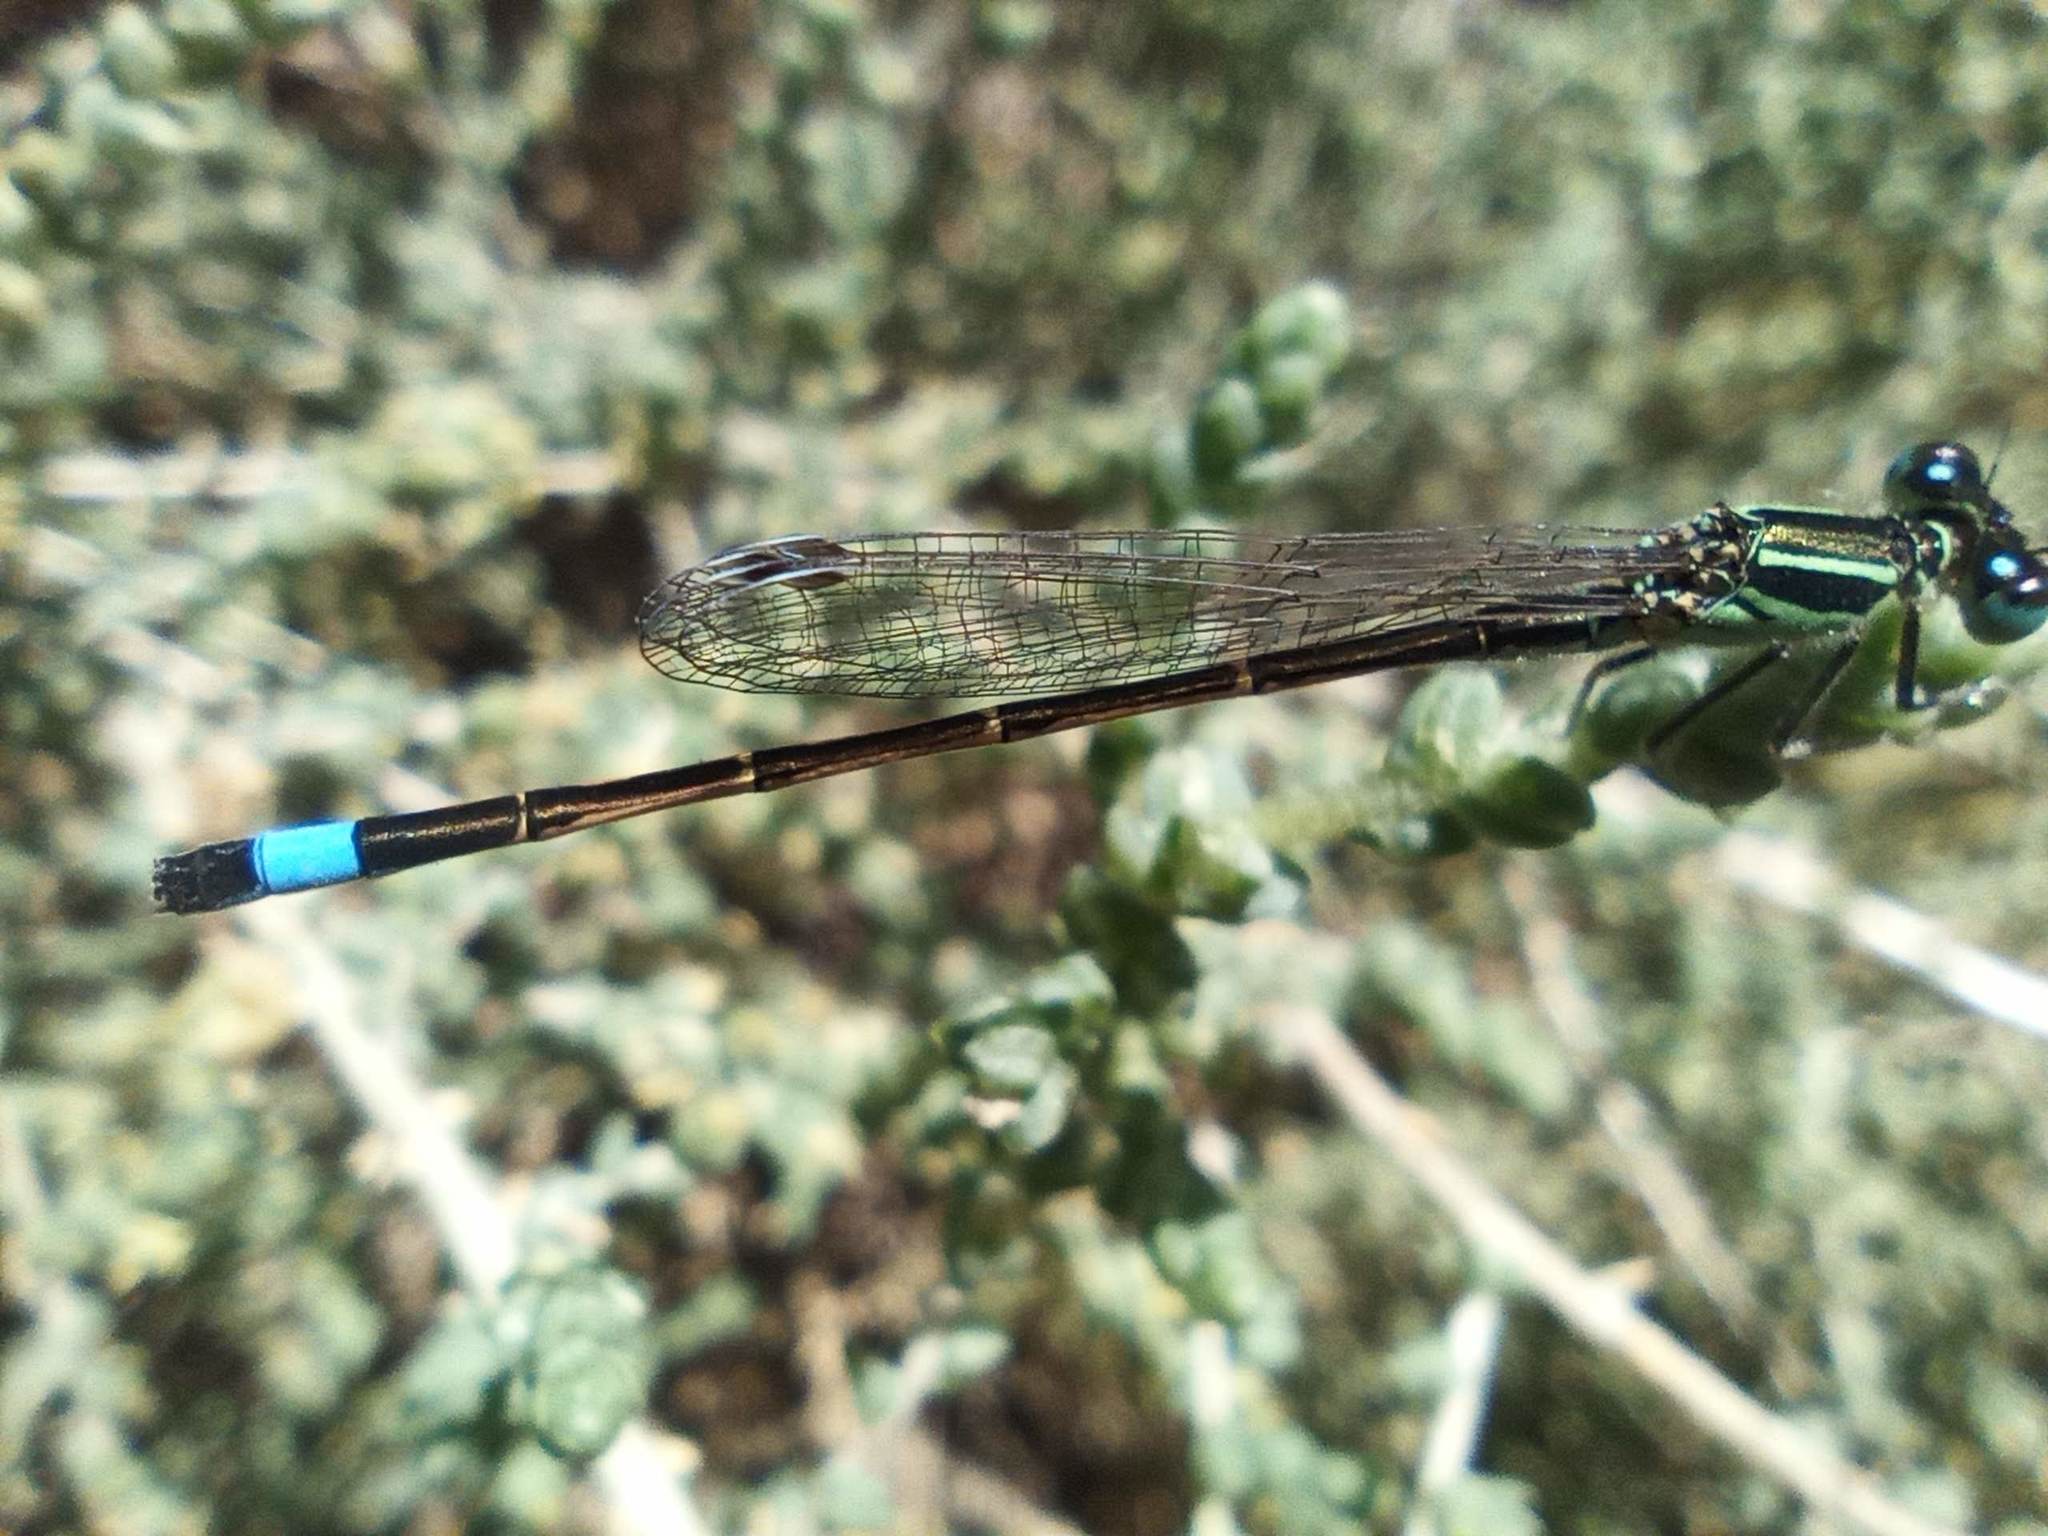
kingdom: Animalia
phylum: Arthropoda
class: Insecta
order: Odonata
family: Coenagrionidae
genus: Ischnura
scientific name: Ischnura saharensis
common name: Sahara bluetail
